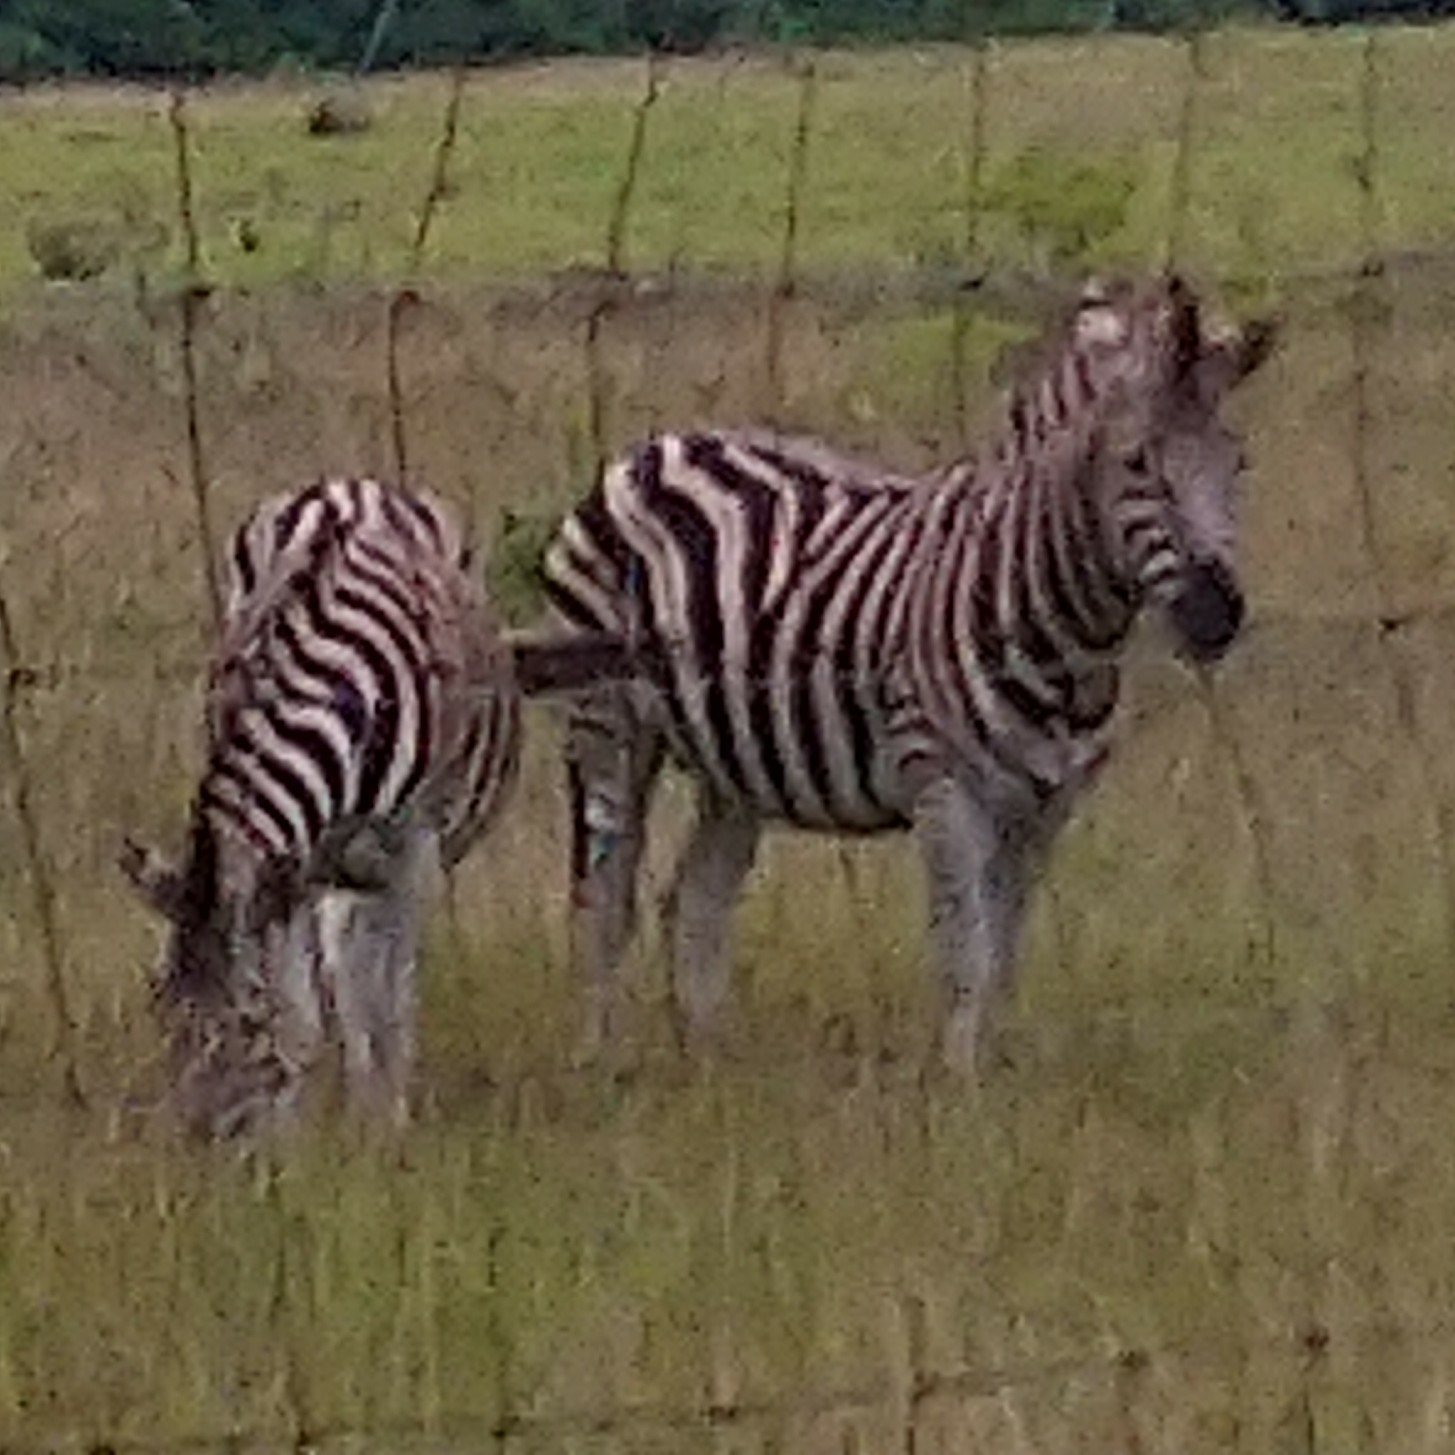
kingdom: Animalia
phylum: Chordata
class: Mammalia
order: Perissodactyla
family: Equidae
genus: Equus
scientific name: Equus quagga
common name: Plains zebra
